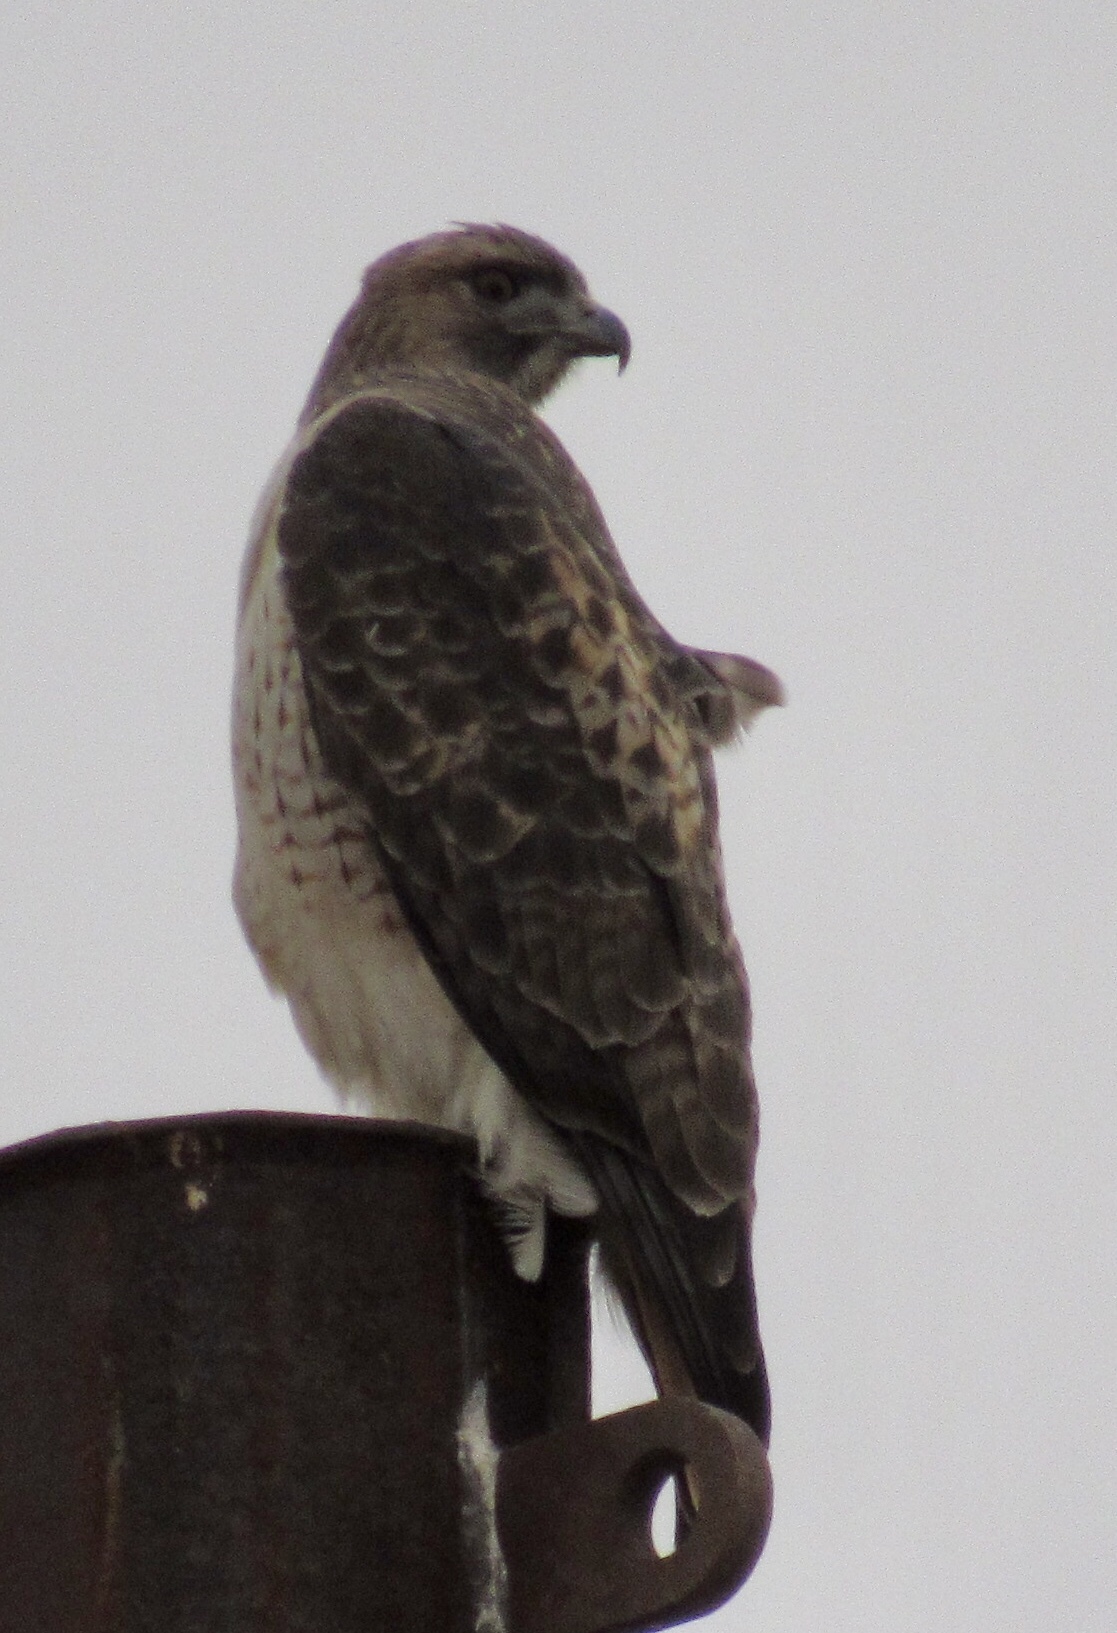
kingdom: Animalia
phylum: Chordata
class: Aves
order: Accipitriformes
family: Accipitridae
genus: Buteo
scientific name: Buteo jamaicensis
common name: Red-tailed hawk
